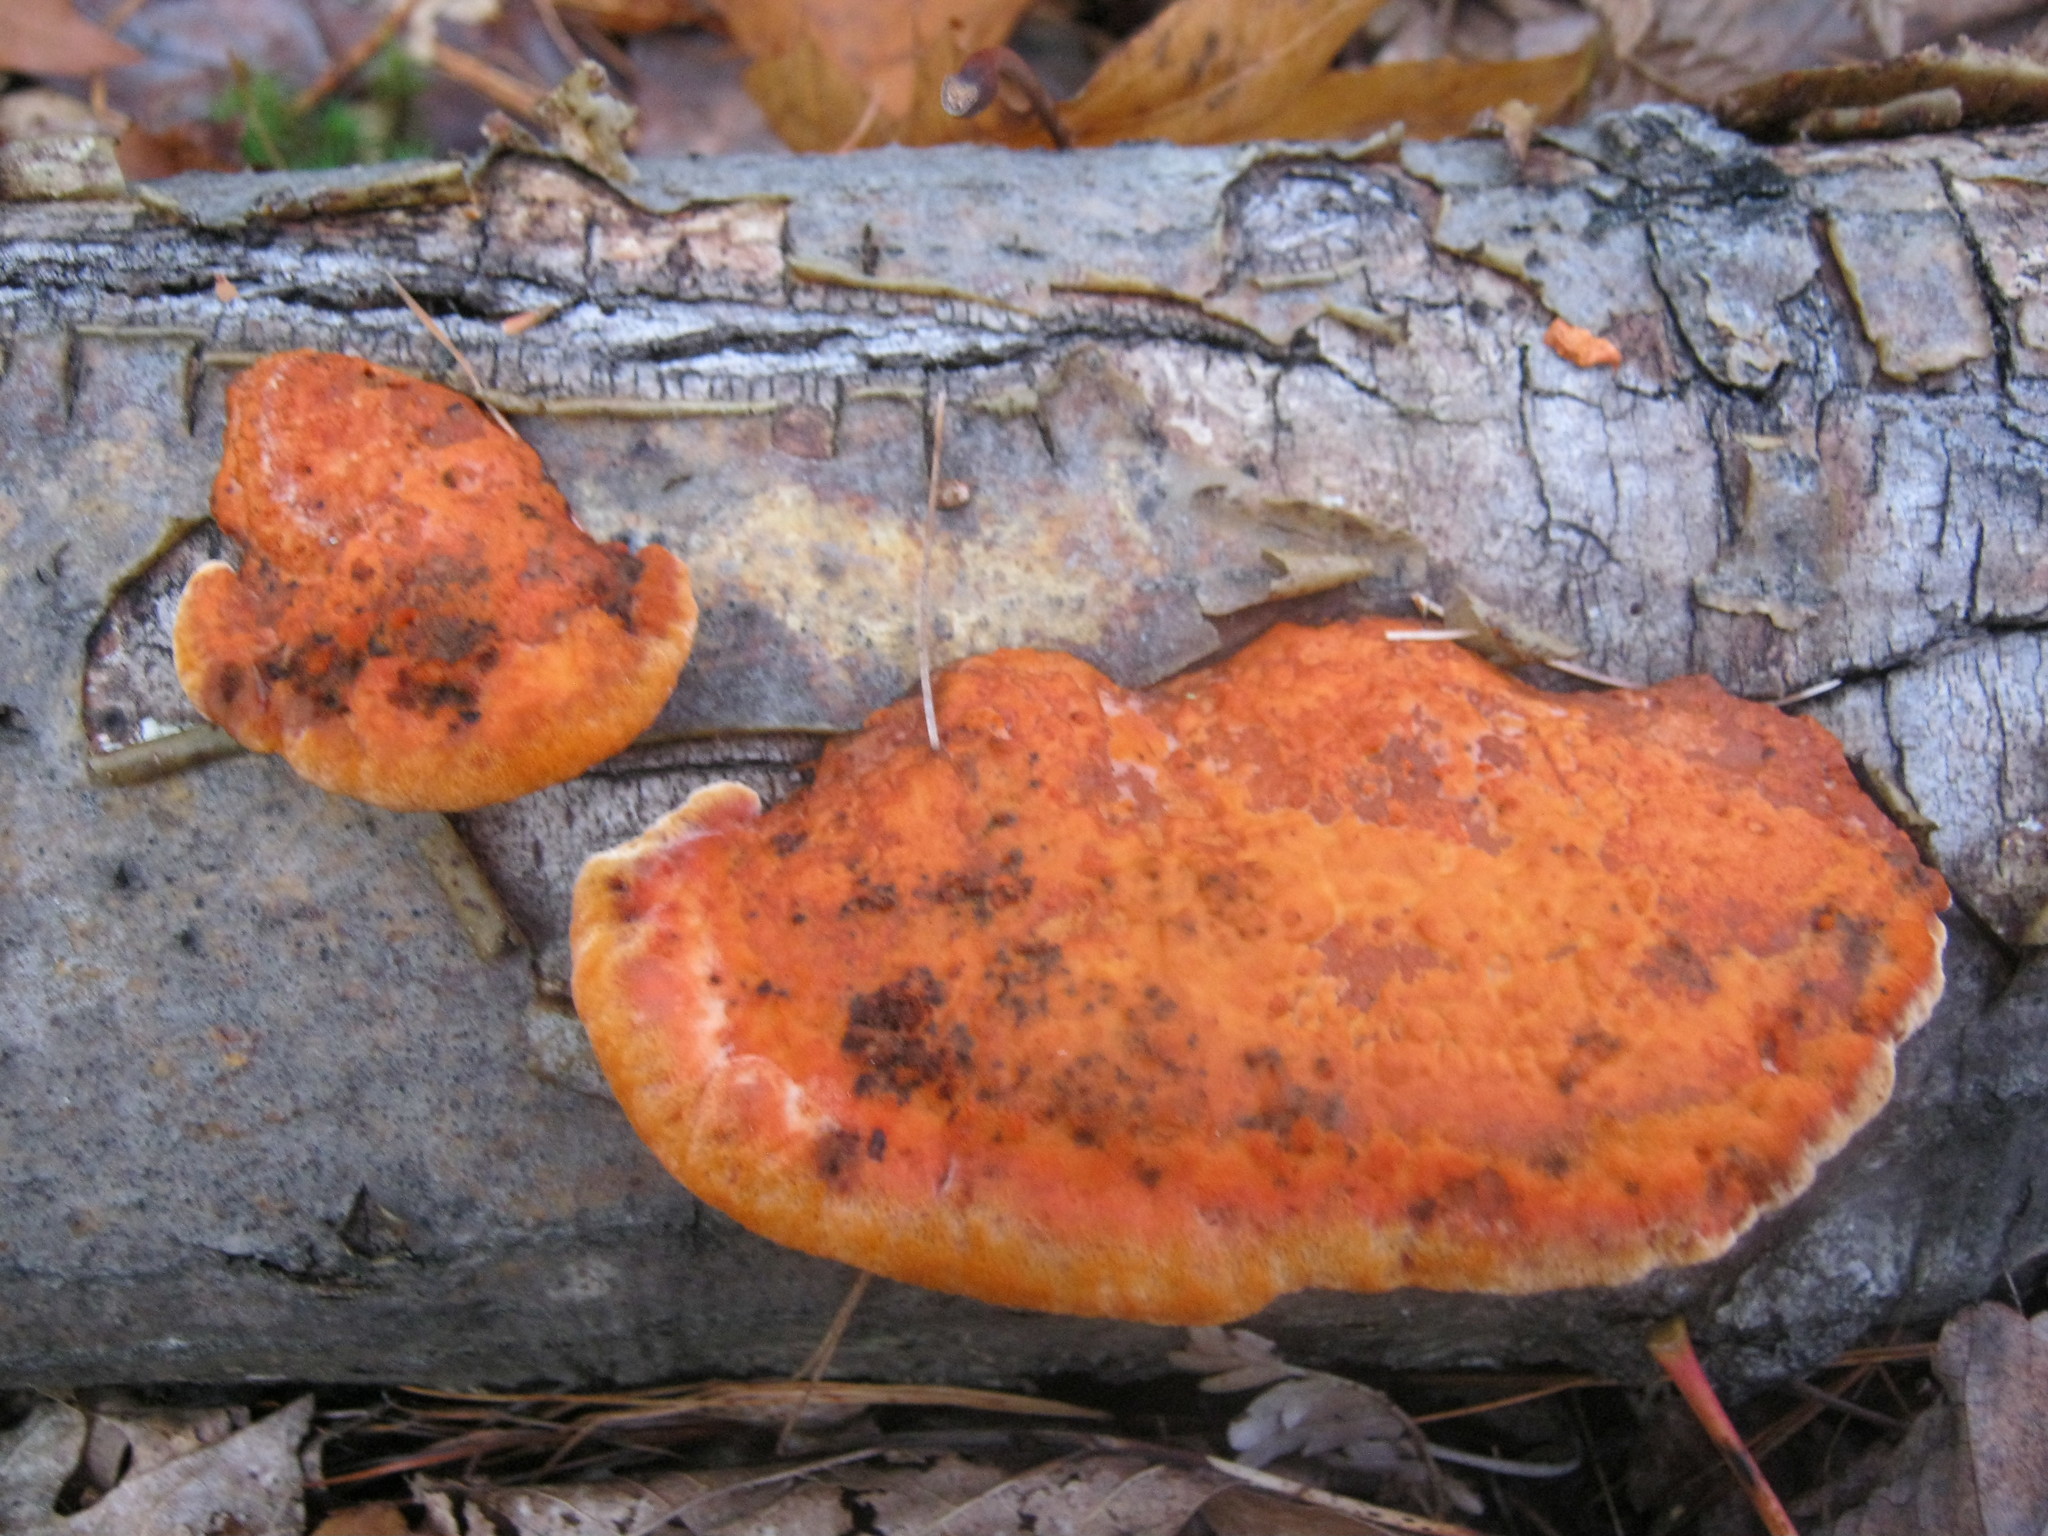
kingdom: Fungi
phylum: Basidiomycota
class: Agaricomycetes
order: Polyporales
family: Polyporaceae
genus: Trametes
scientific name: Trametes cinnabarina
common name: Northern cinnabar polypore
